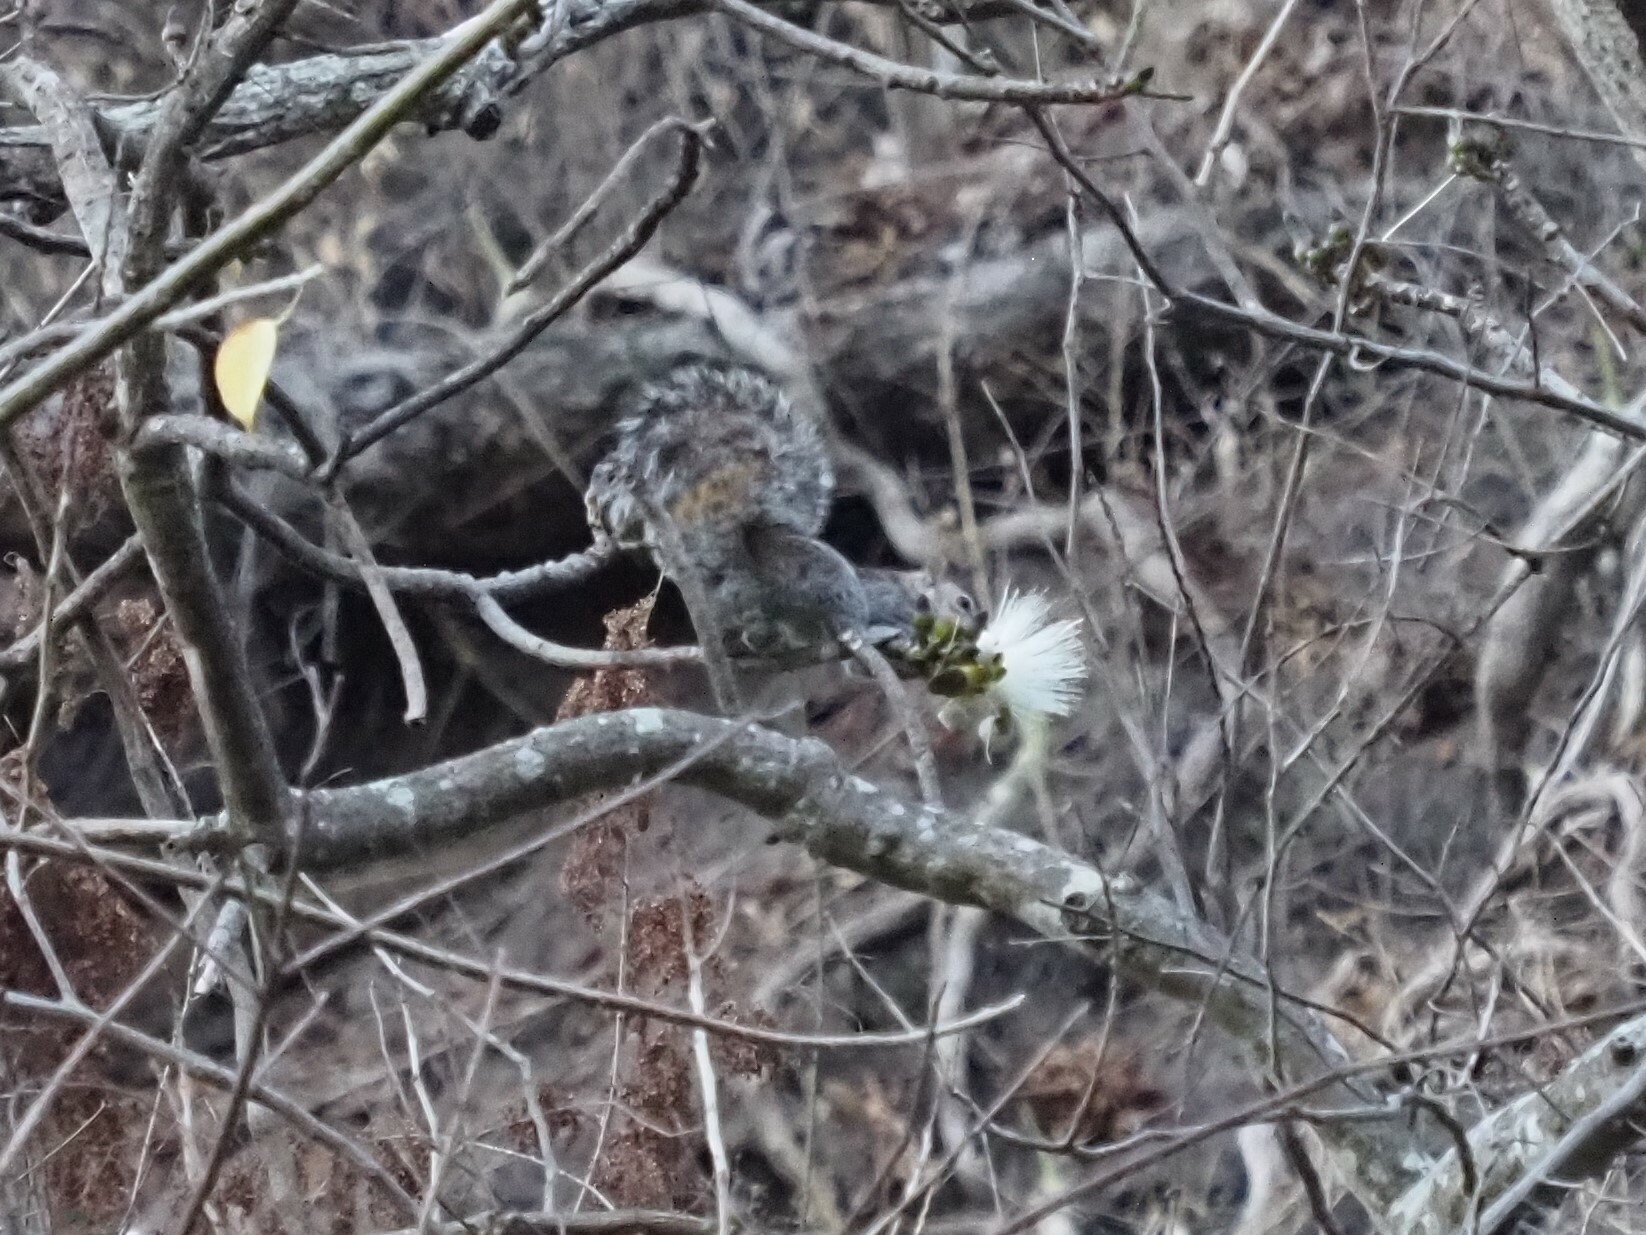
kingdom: Animalia
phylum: Chordata
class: Mammalia
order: Rodentia
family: Sciuridae
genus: Sciurus
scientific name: Sciurus colliaei
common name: Collie's squirrel
